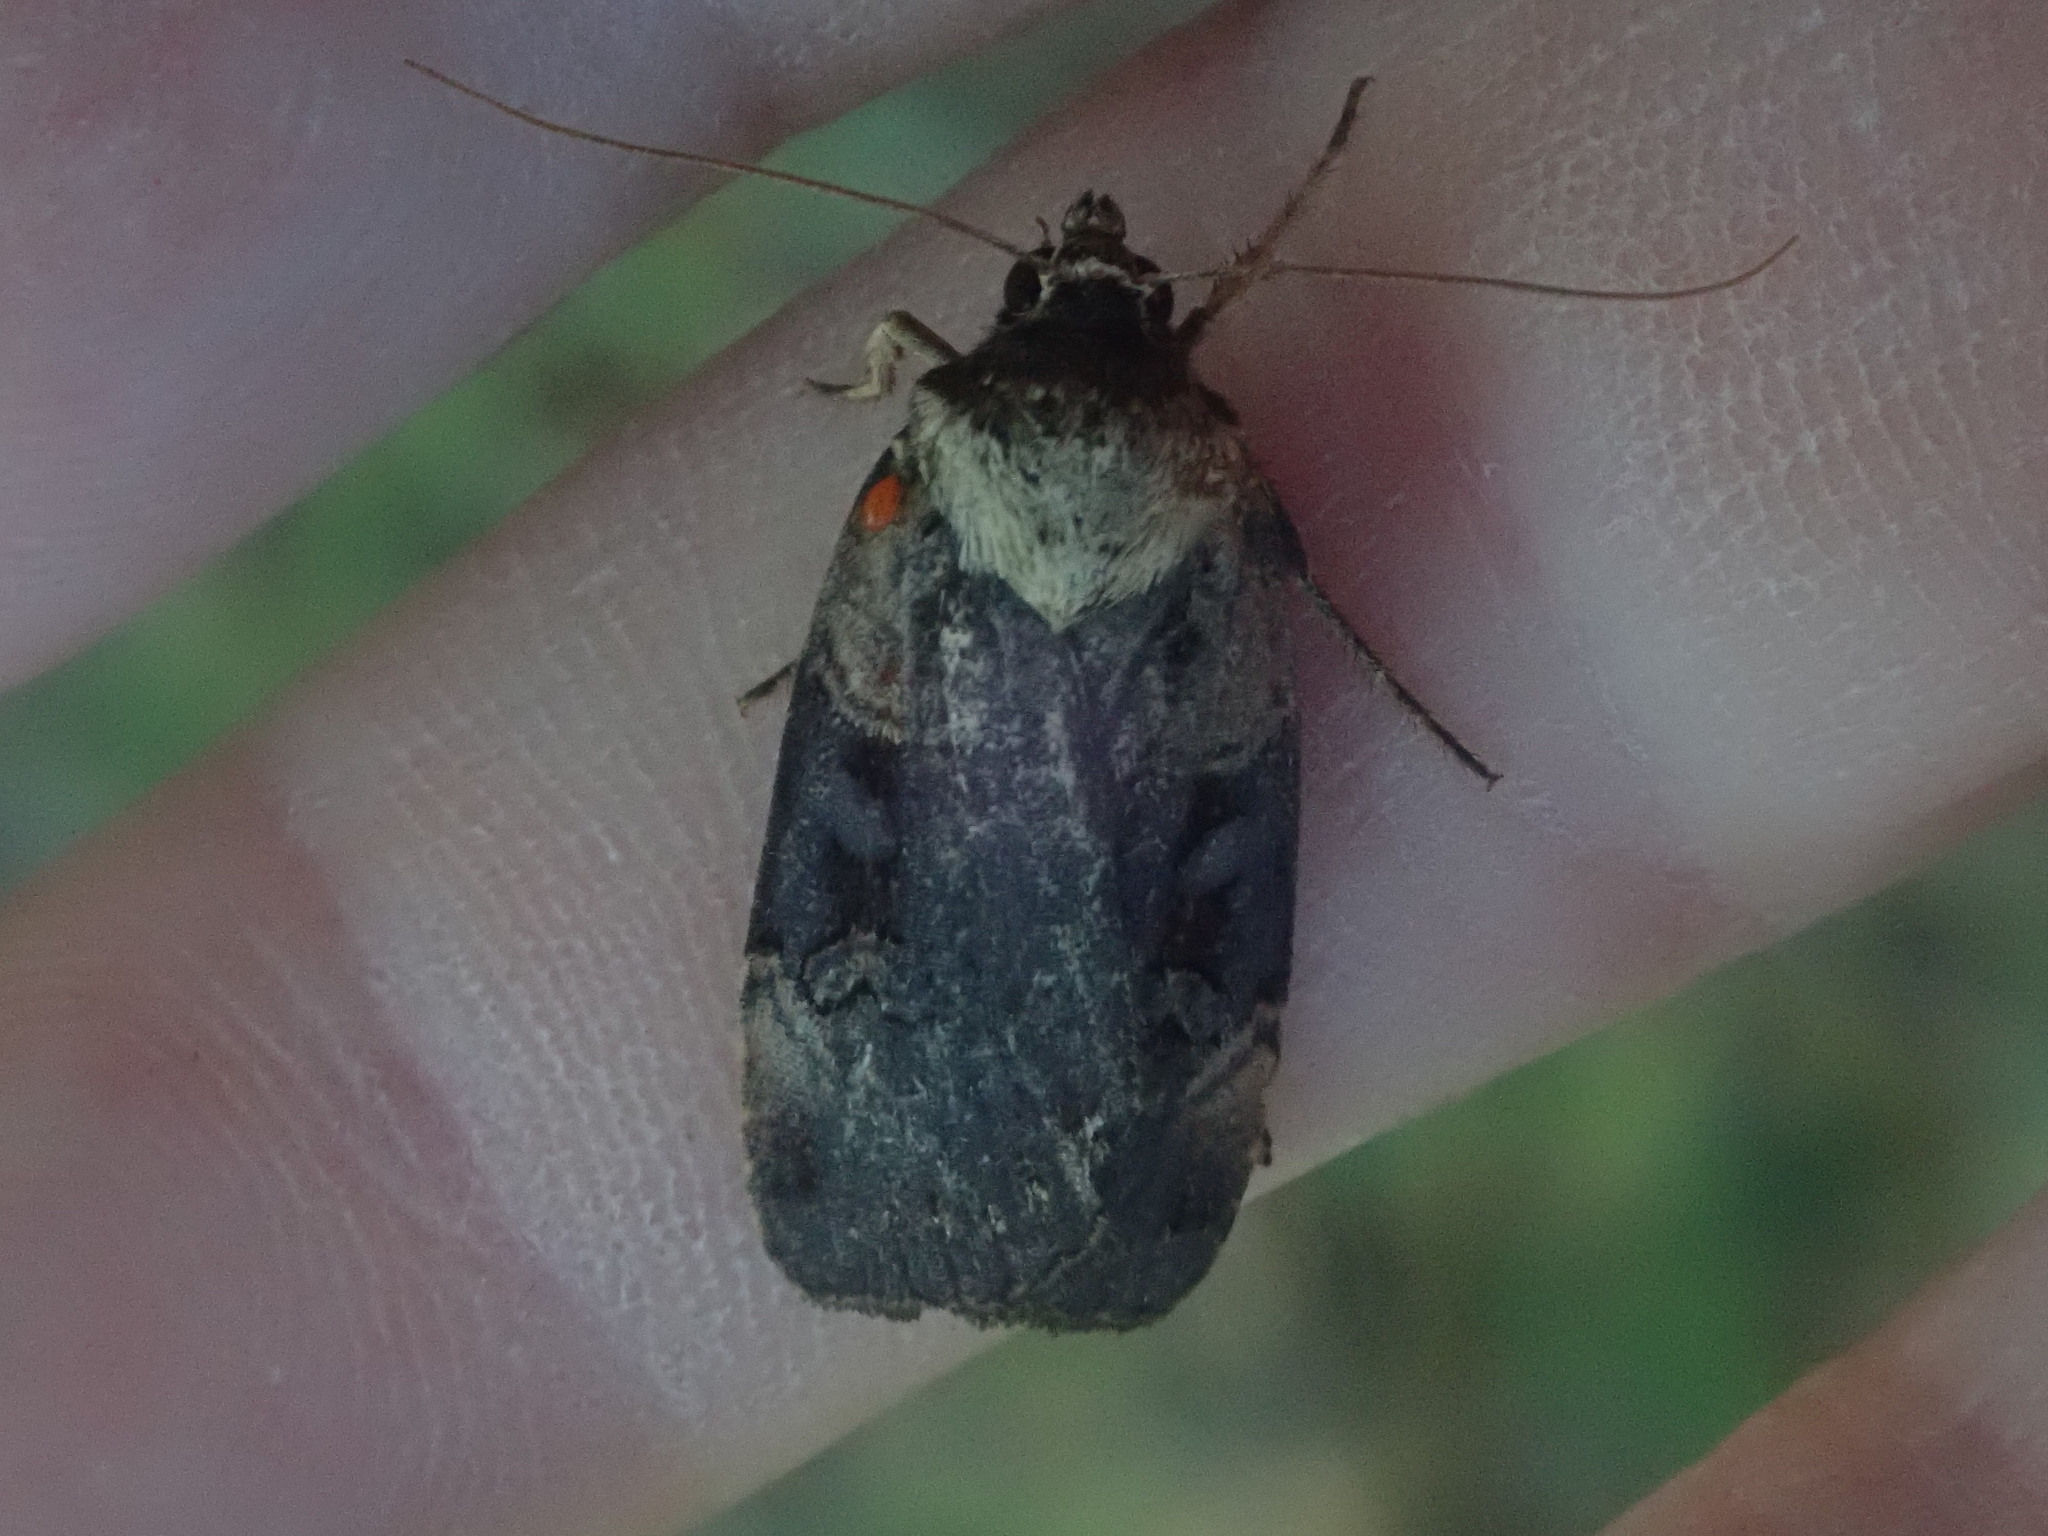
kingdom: Animalia
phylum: Arthropoda
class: Insecta
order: Lepidoptera
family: Noctuidae
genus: Pseudohermonassa
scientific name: Pseudohermonassa bicarnea
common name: Pink spotted dart
